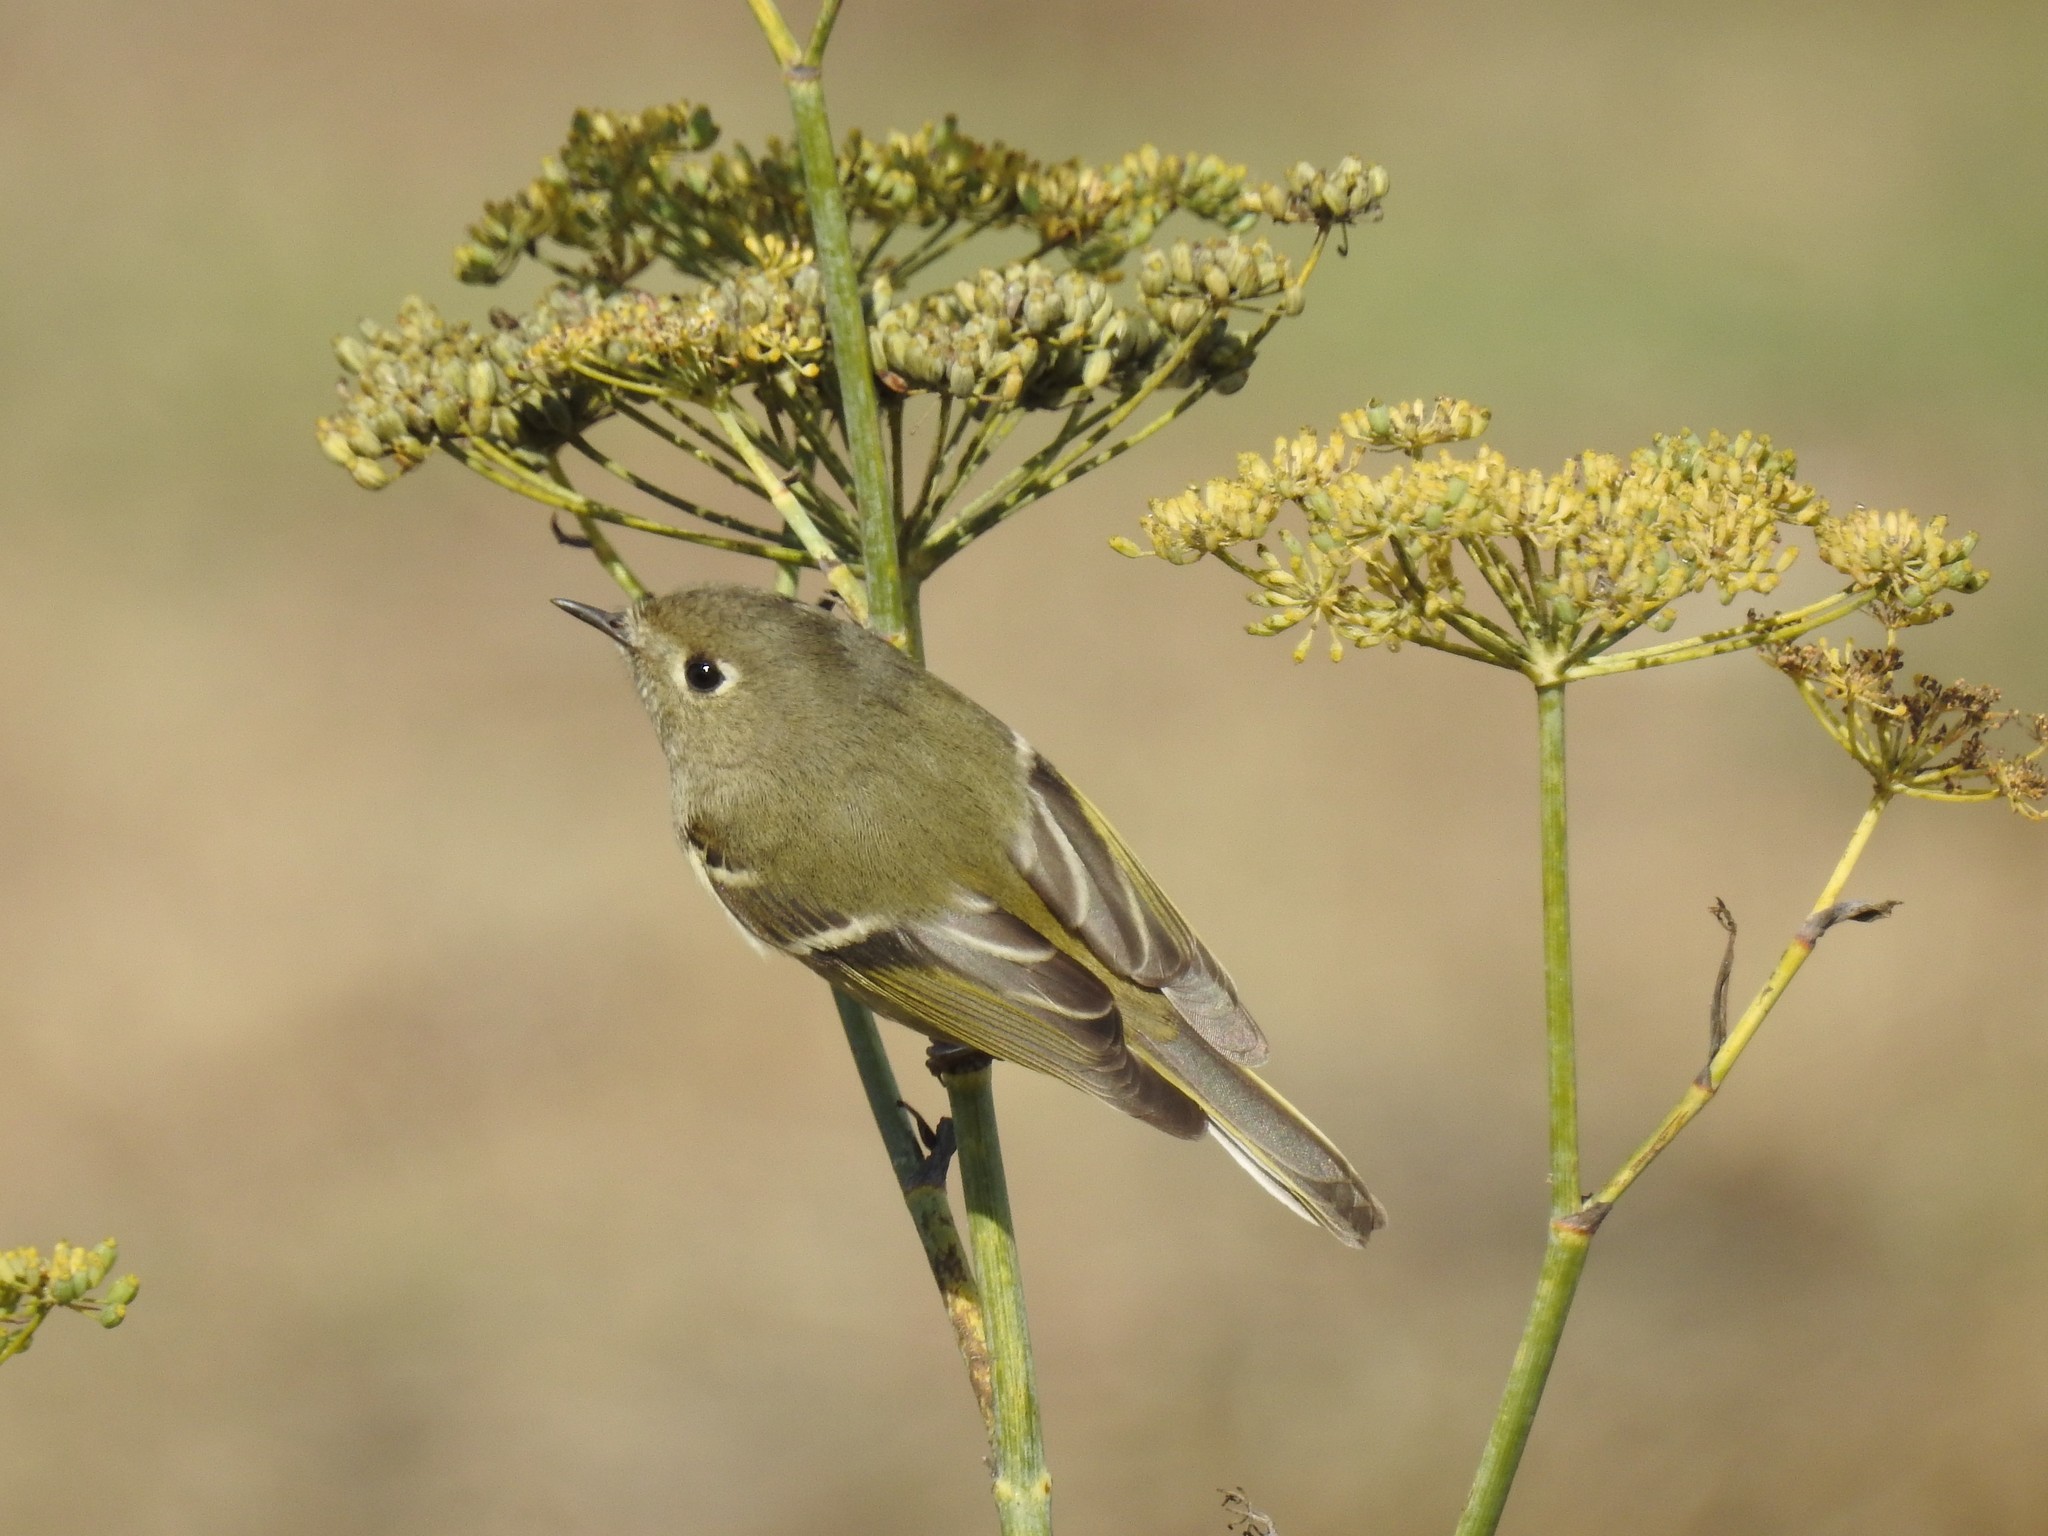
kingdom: Animalia
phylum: Chordata
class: Aves
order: Passeriformes
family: Regulidae
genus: Regulus
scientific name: Regulus calendula
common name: Ruby-crowned kinglet
